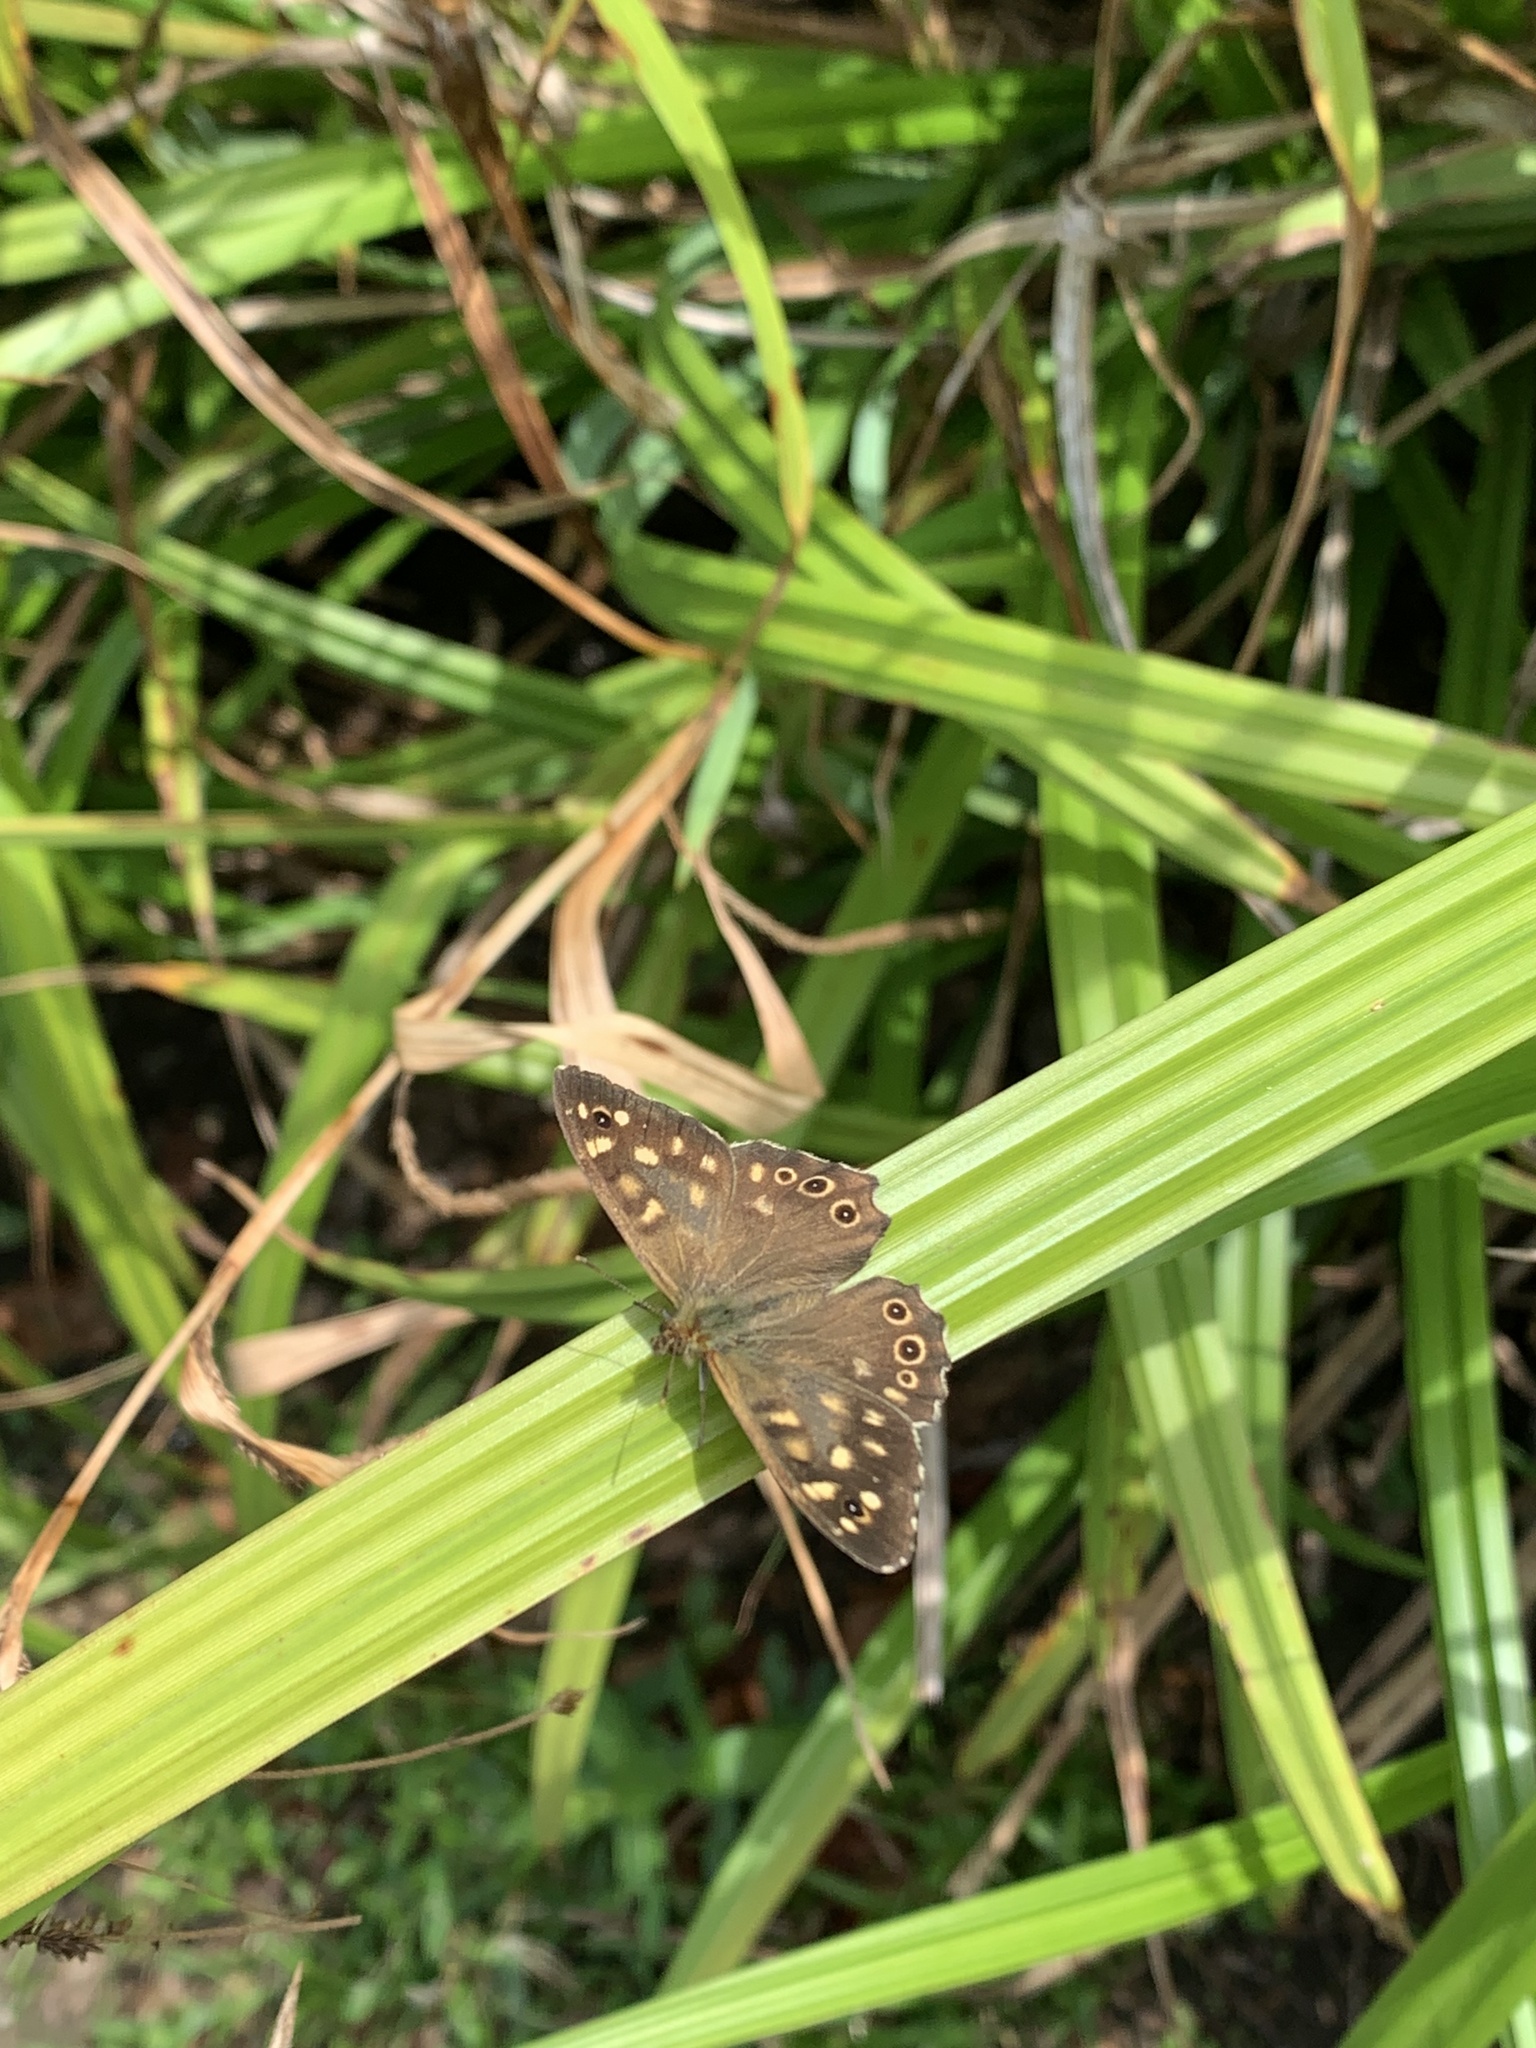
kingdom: Animalia
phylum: Arthropoda
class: Insecta
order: Lepidoptera
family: Nymphalidae
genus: Pararge
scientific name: Pararge aegeria
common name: Speckled wood
